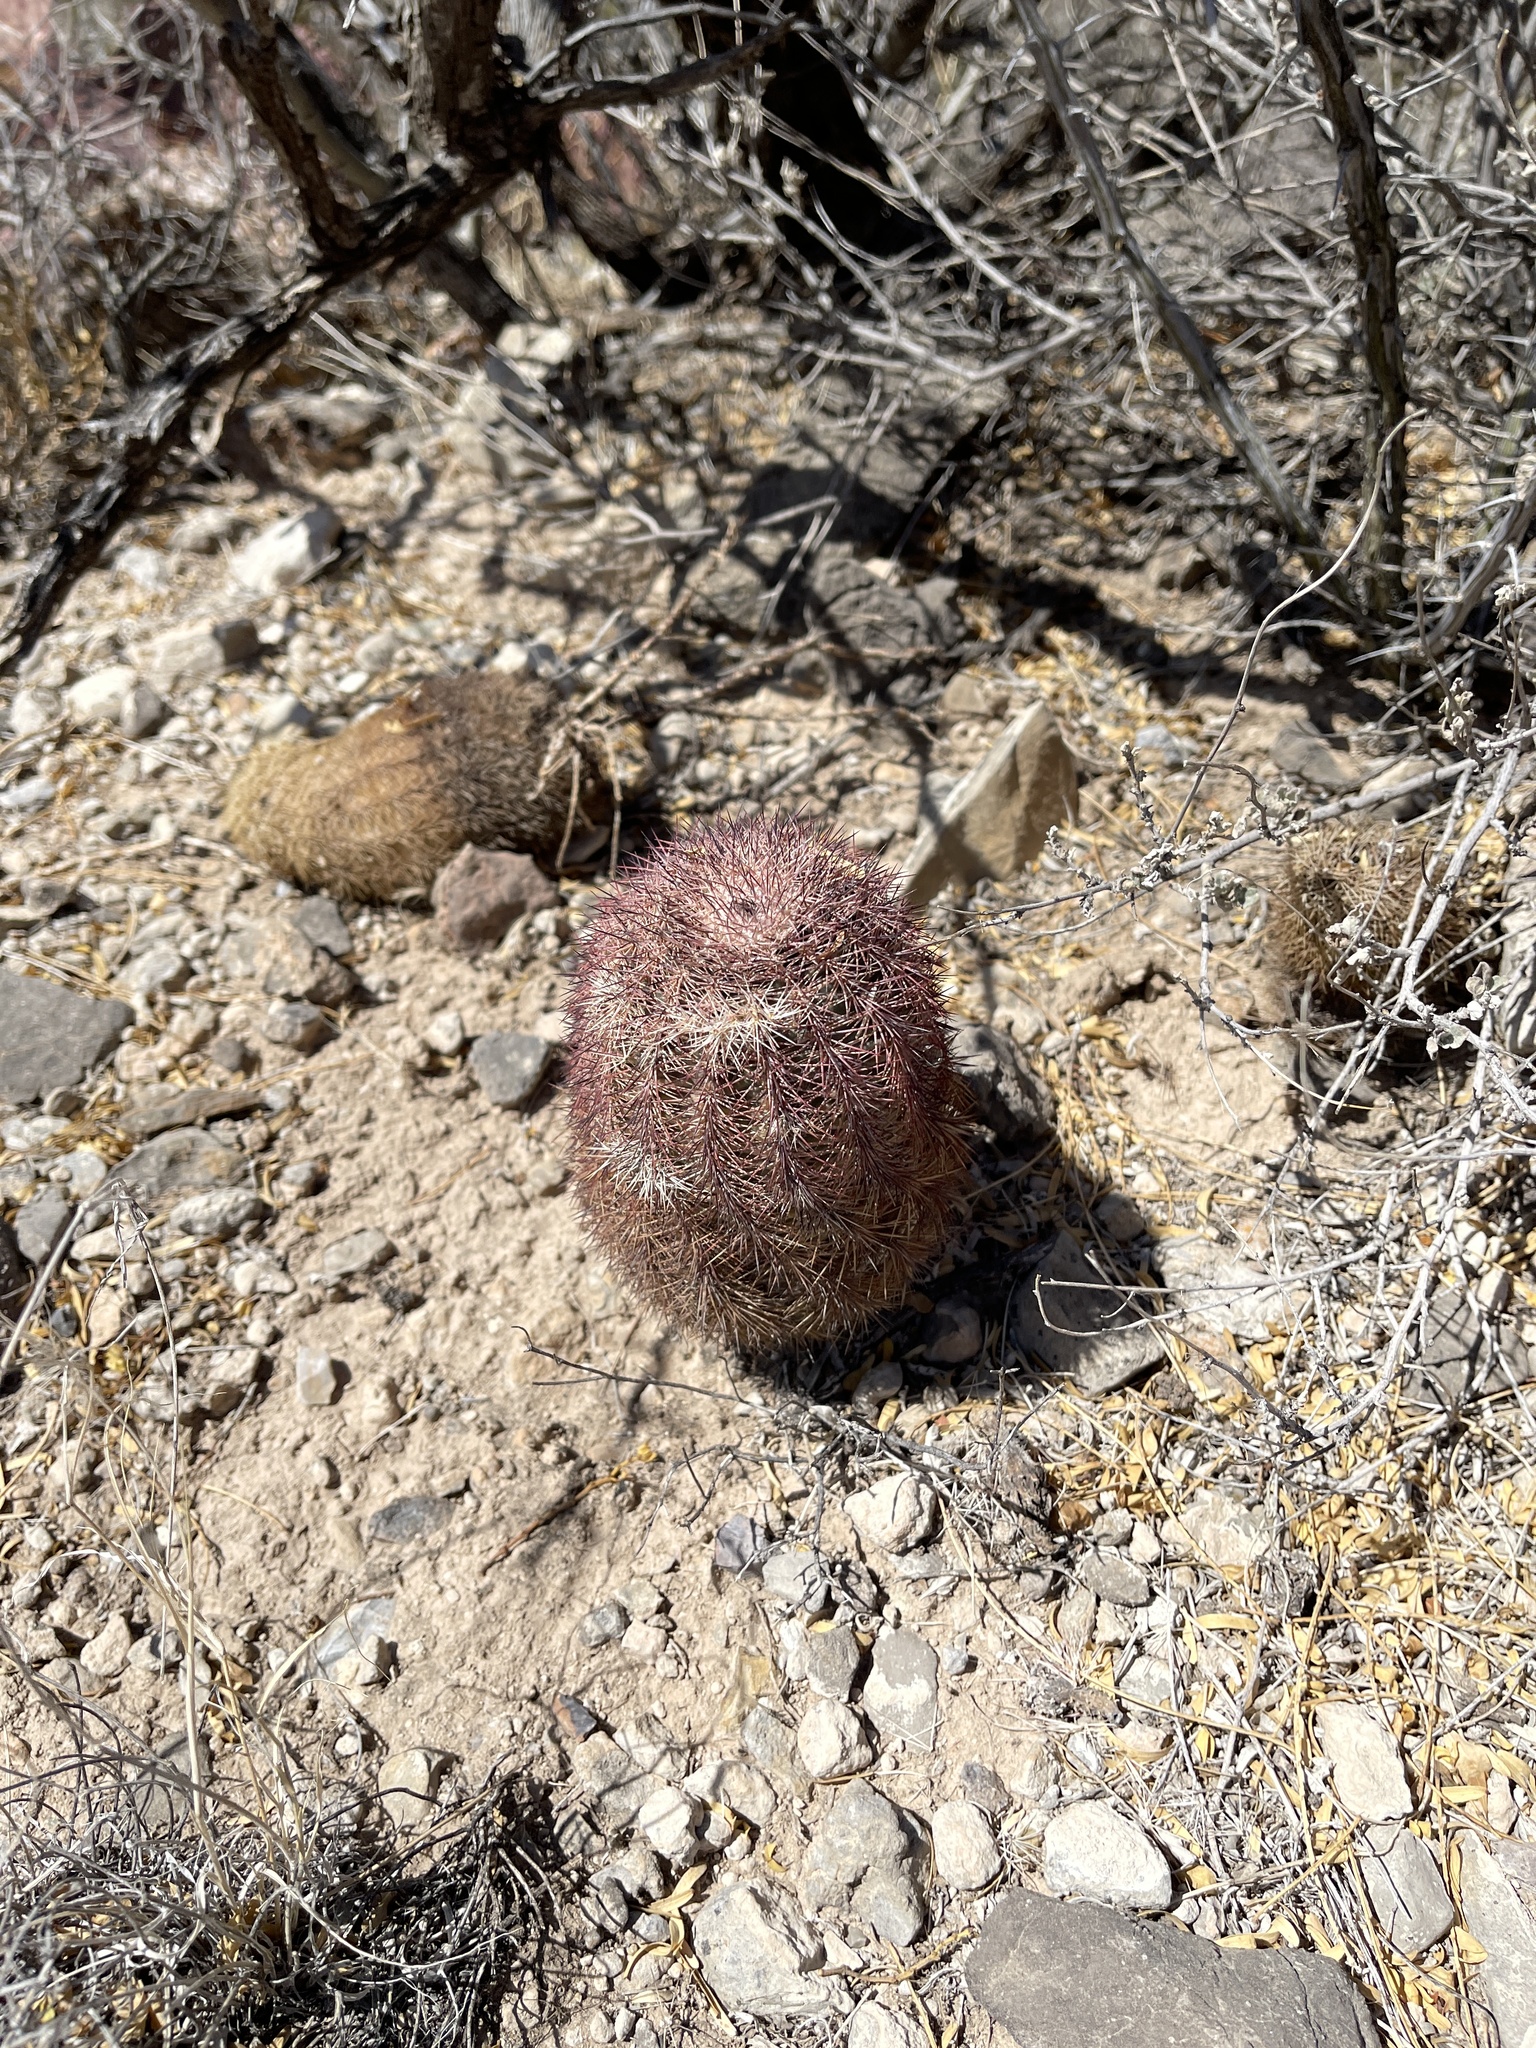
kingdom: Plantae
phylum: Tracheophyta
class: Magnoliopsida
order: Caryophyllales
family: Cactaceae
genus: Echinocereus
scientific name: Echinocereus dasyacanthus
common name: Spiny hedgehog cactus
